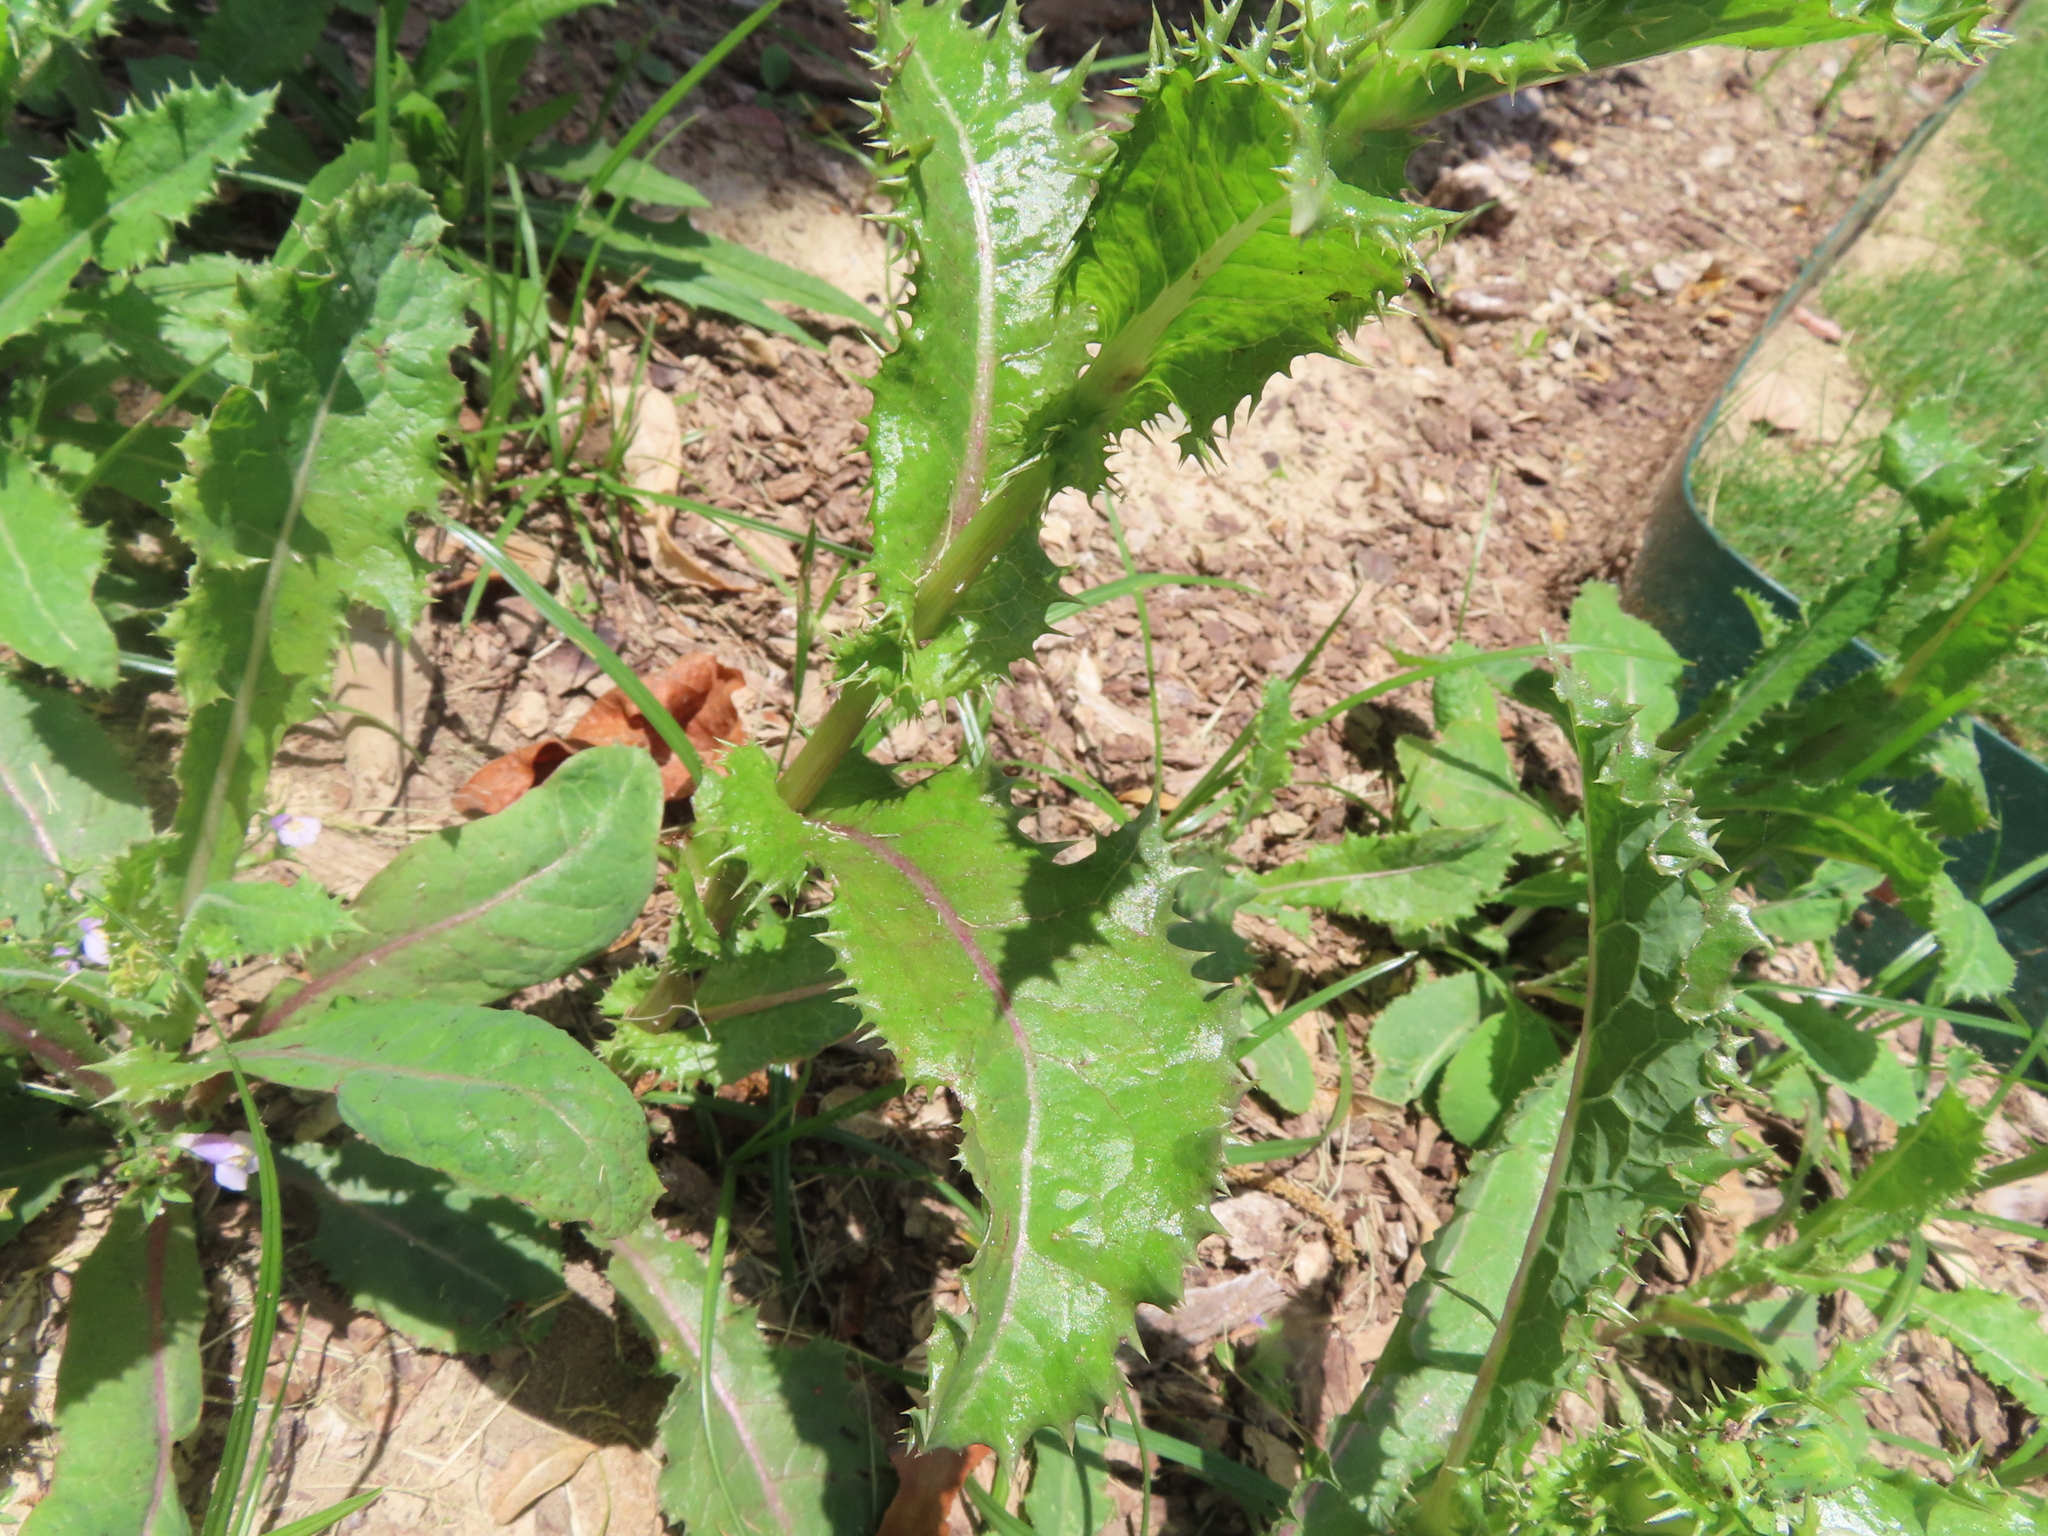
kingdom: Plantae
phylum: Tracheophyta
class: Magnoliopsida
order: Asterales
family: Asteraceae
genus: Sonchus
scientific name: Sonchus asper
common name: Prickly sow-thistle
